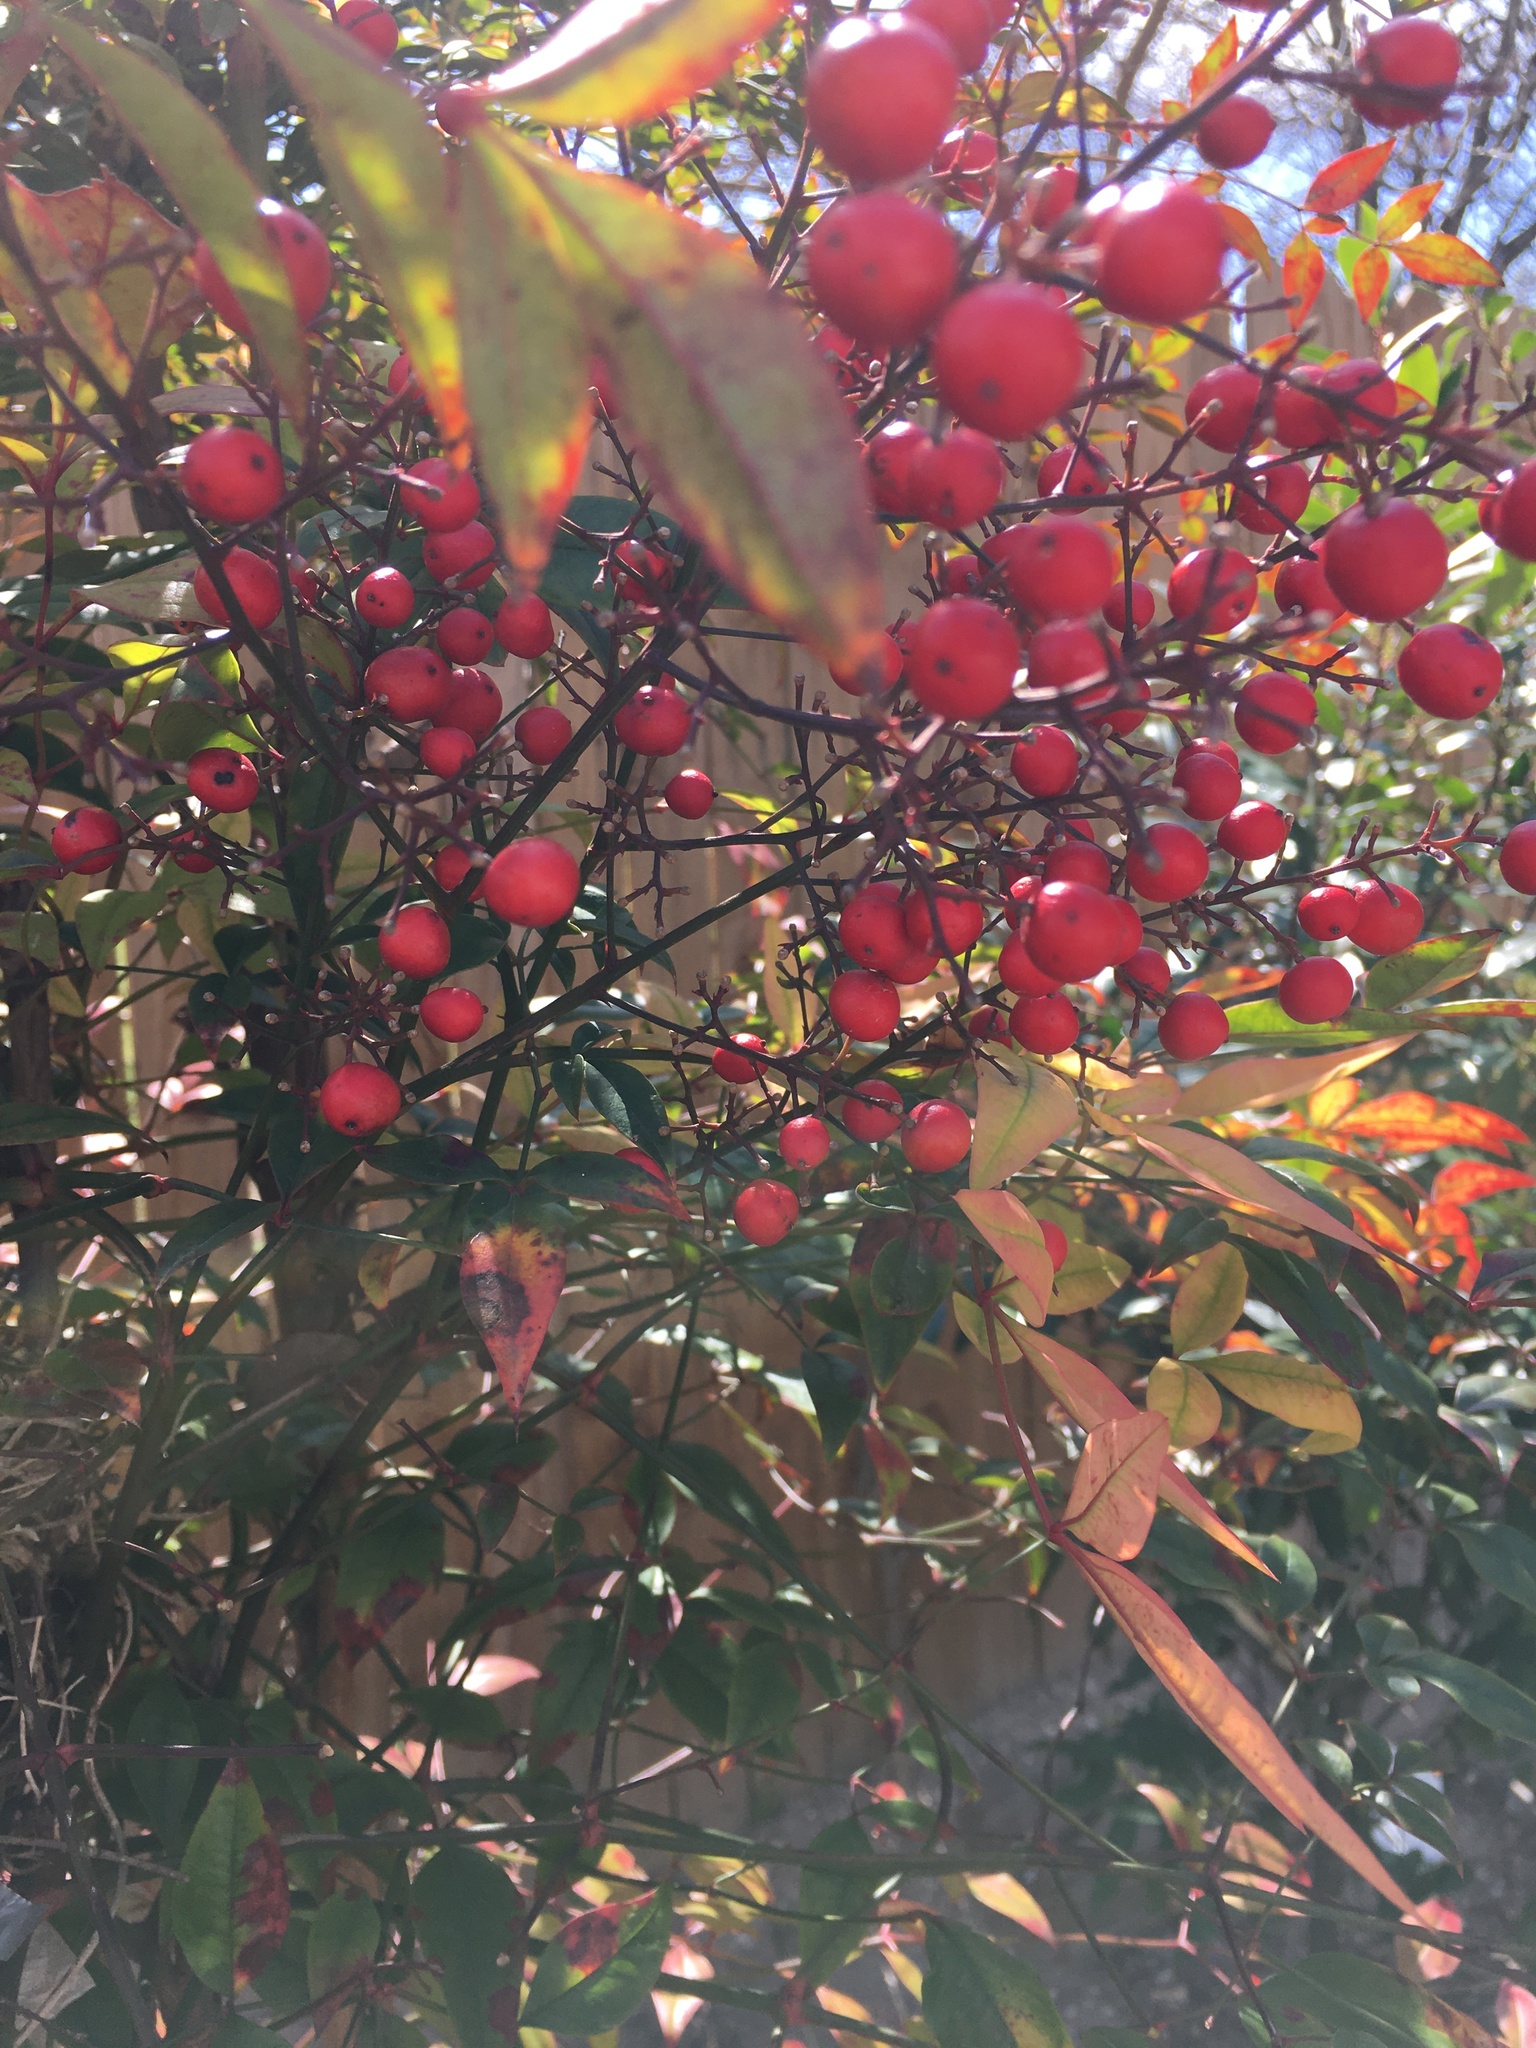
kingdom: Plantae
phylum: Tracheophyta
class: Magnoliopsida
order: Ranunculales
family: Berberidaceae
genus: Nandina
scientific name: Nandina domestica
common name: Sacred bamboo
